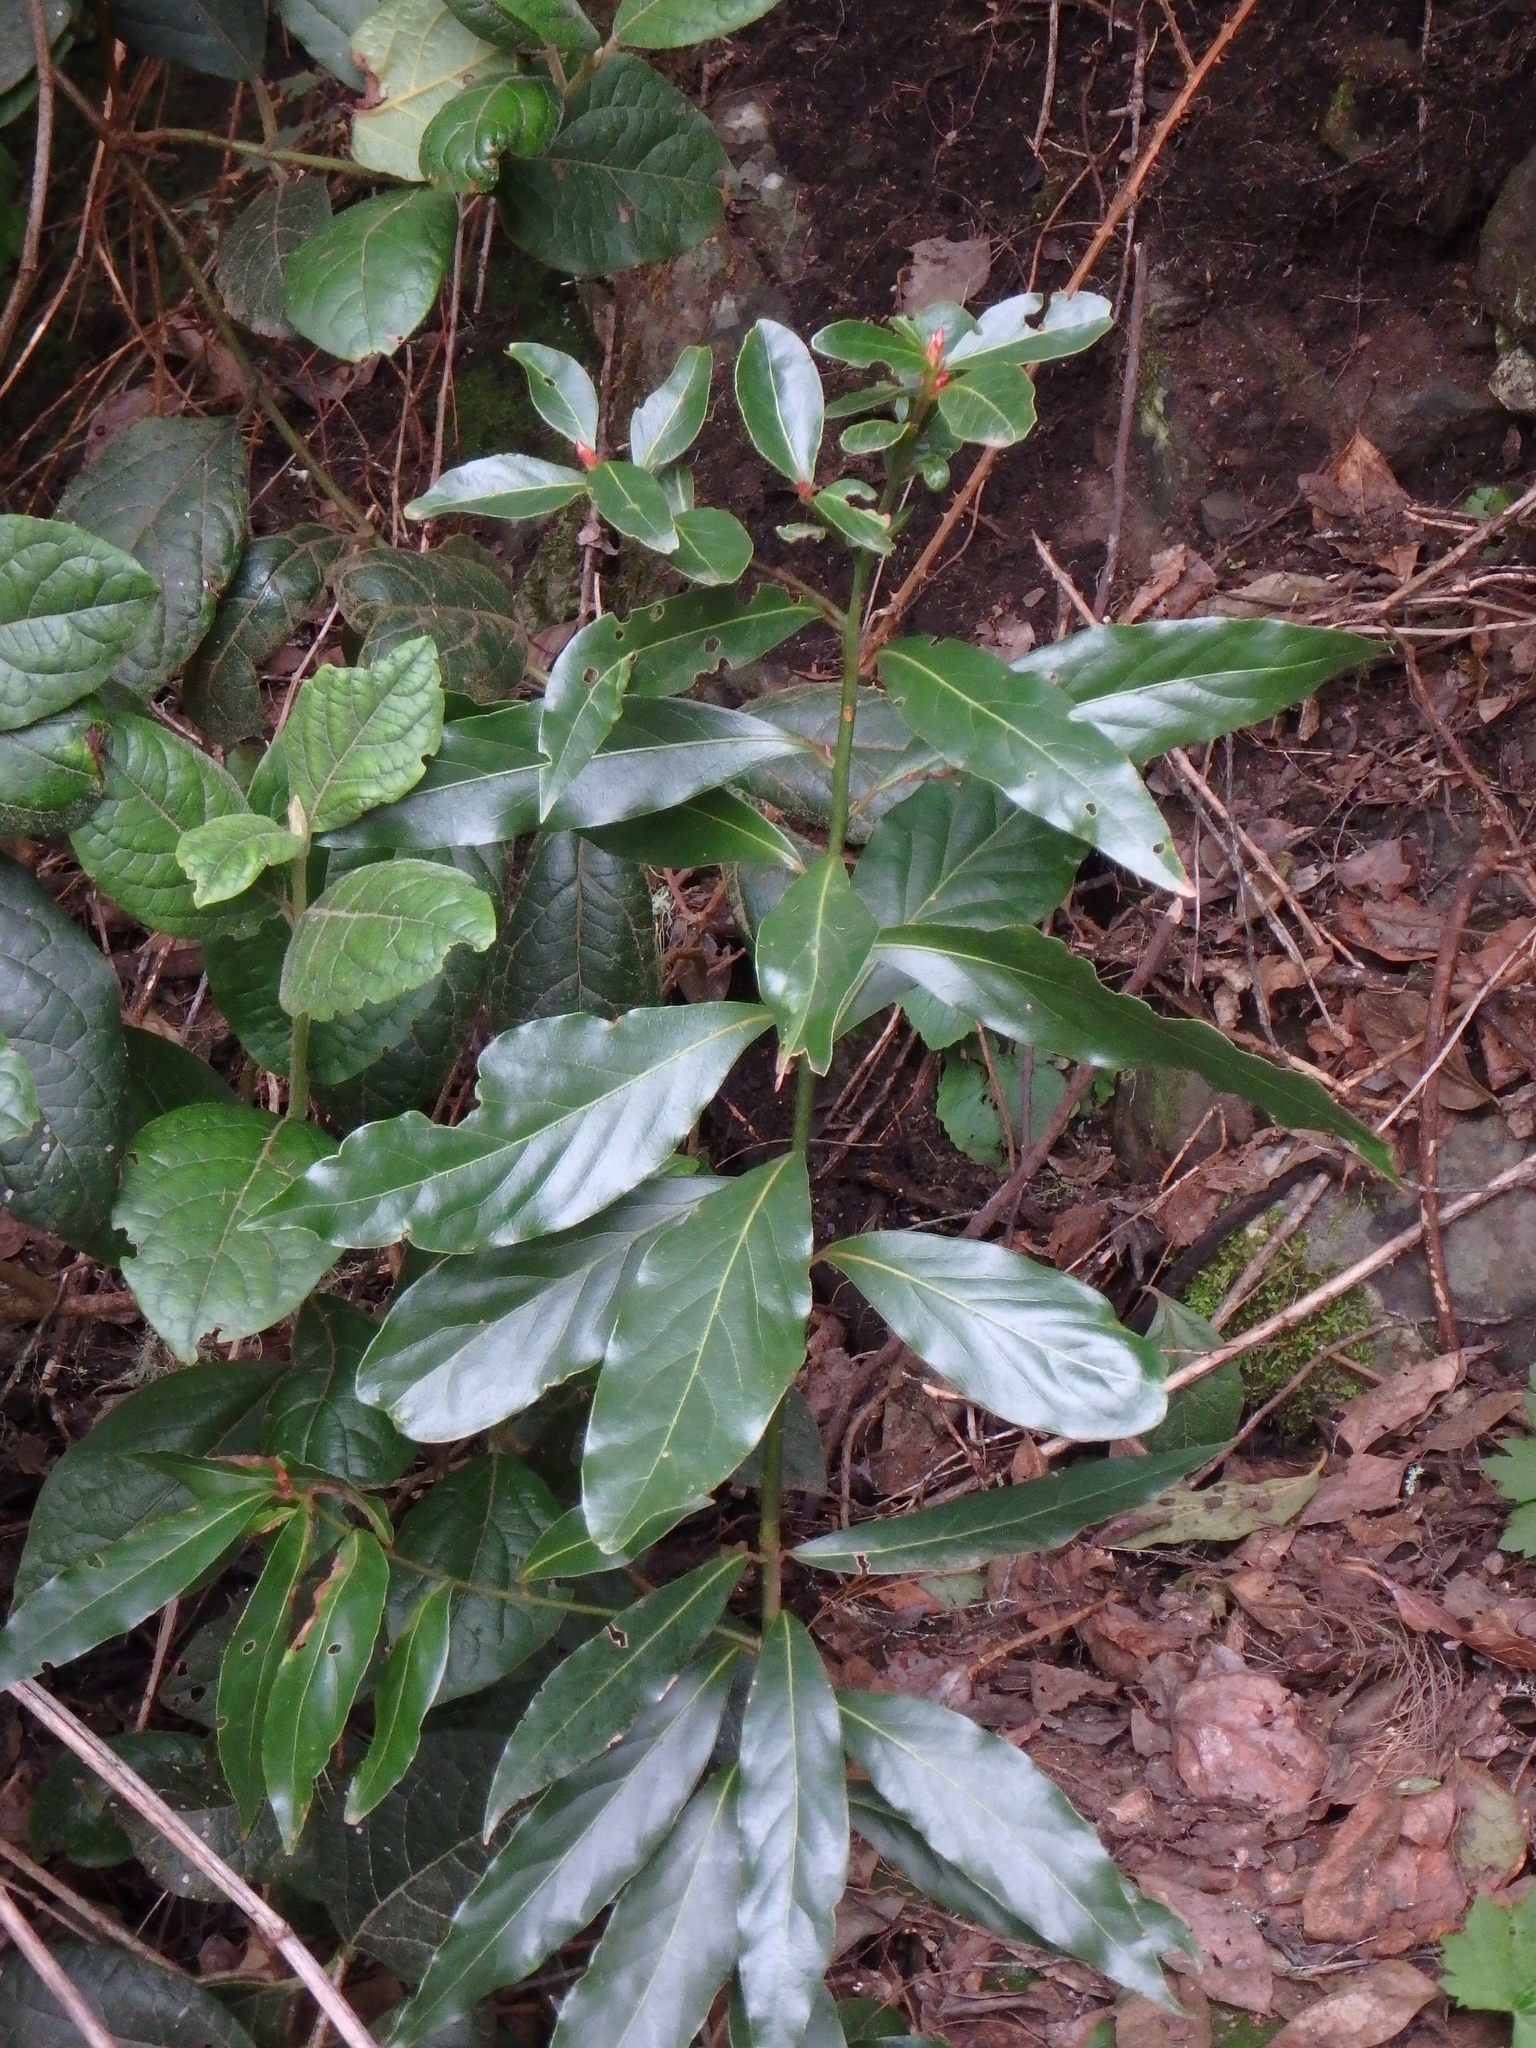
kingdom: Plantae
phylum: Tracheophyta
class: Magnoliopsida
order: Laurales
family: Lauraceae
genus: Laurus
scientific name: Laurus novocanariensis
